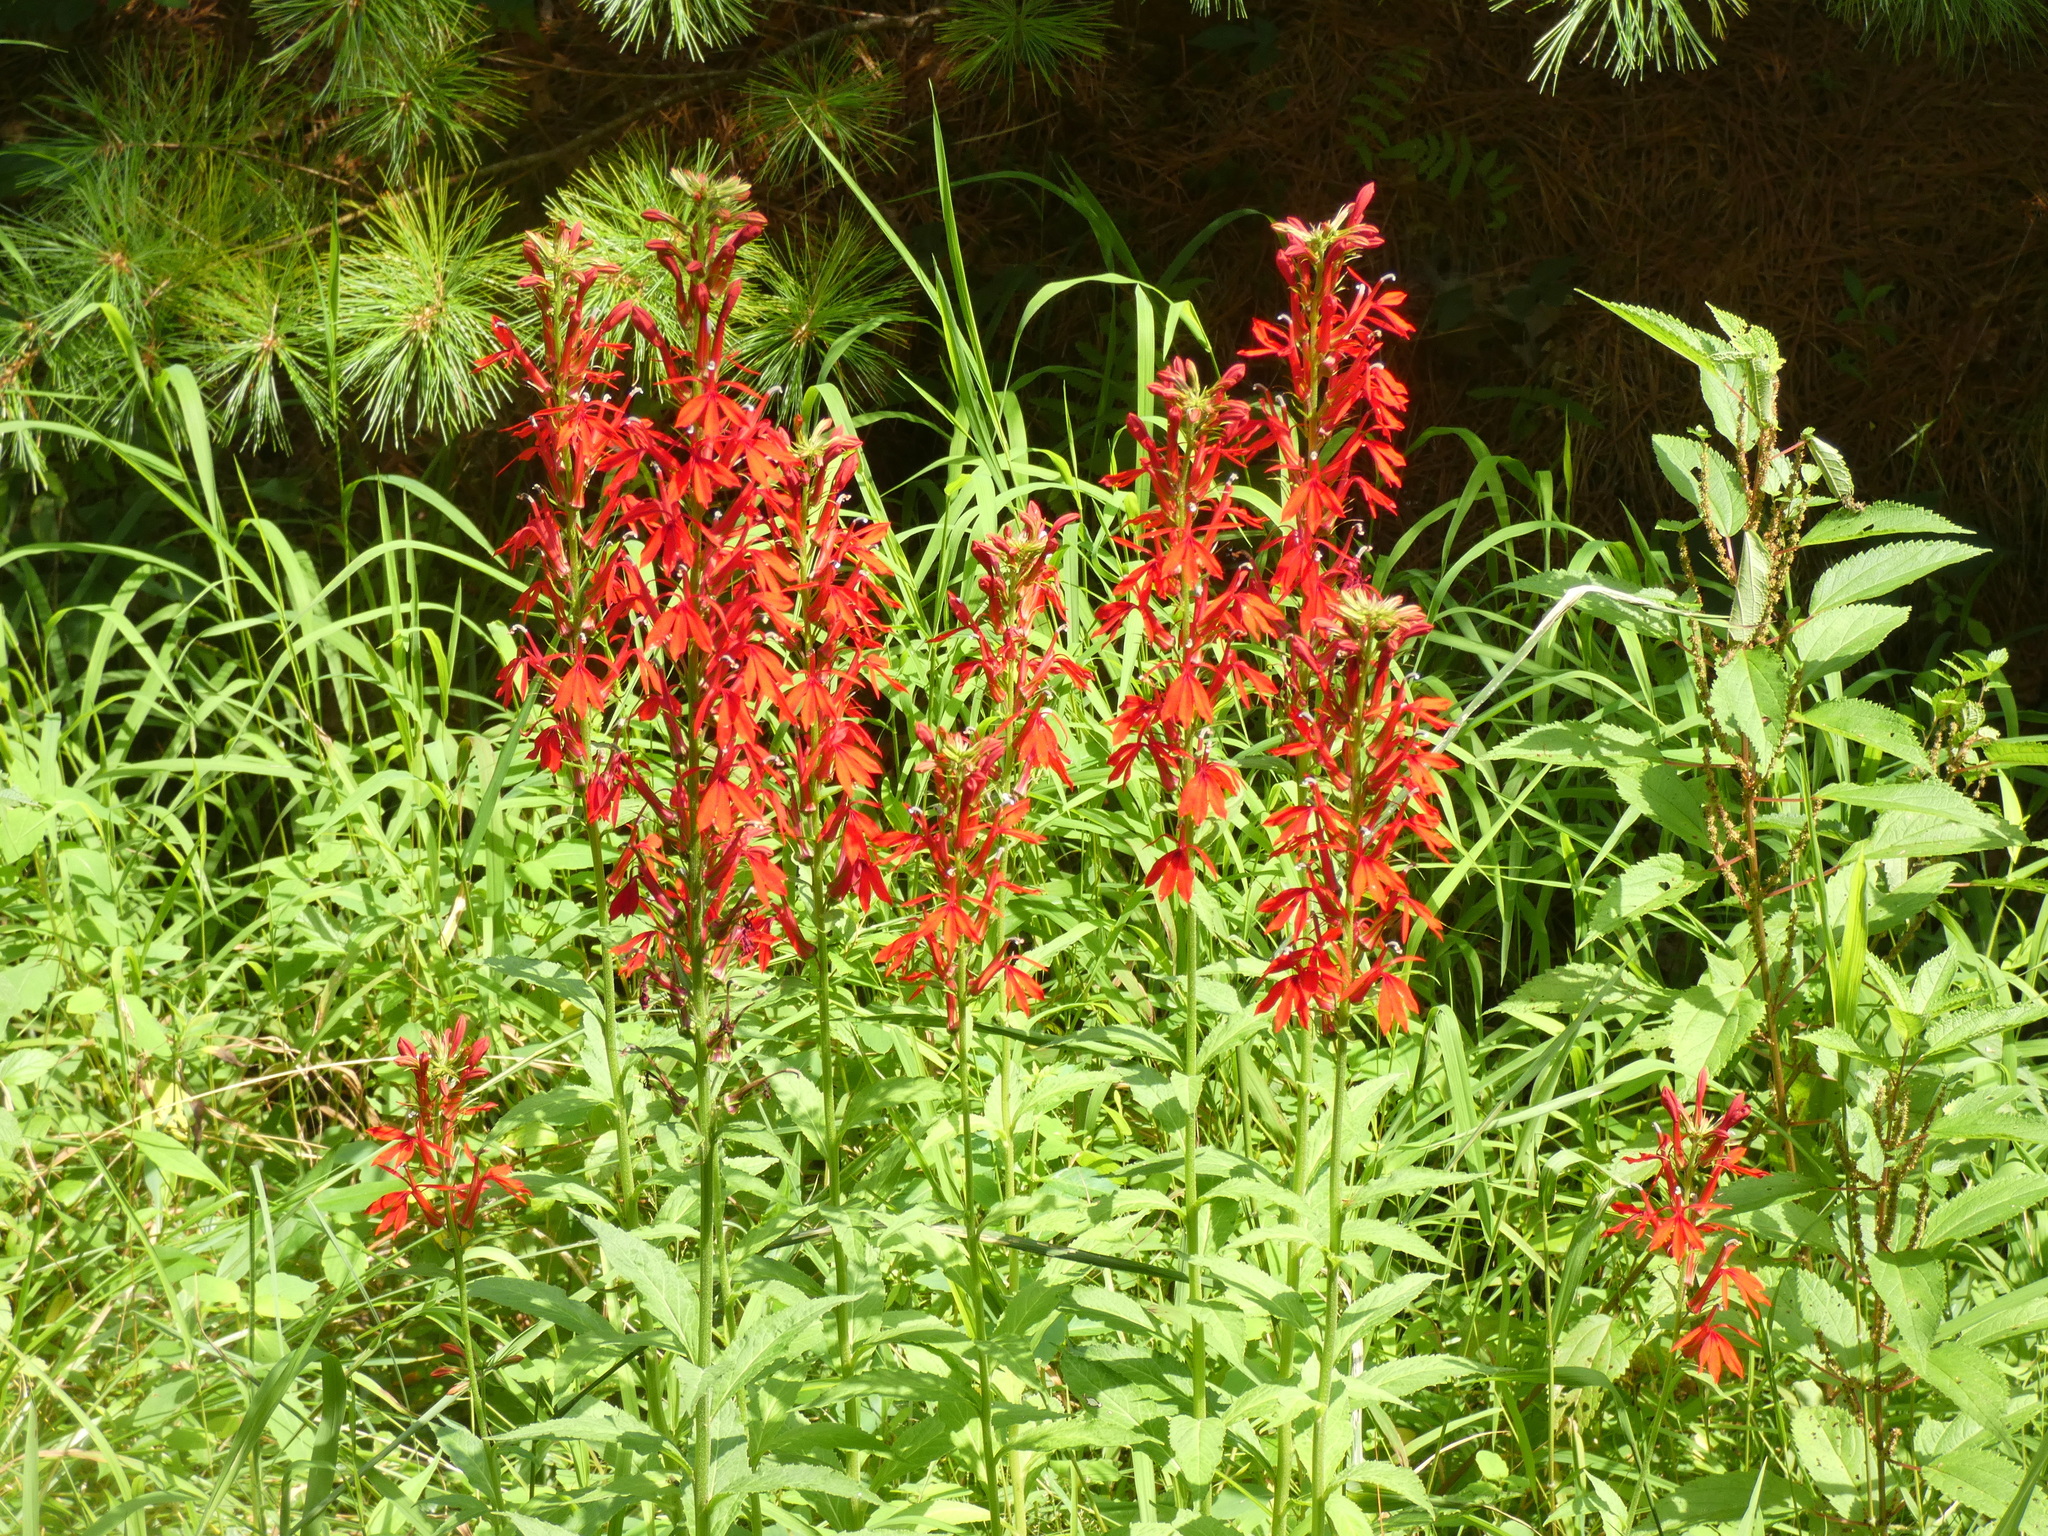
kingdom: Plantae
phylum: Tracheophyta
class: Magnoliopsida
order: Asterales
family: Campanulaceae
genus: Lobelia
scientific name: Lobelia cardinalis
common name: Cardinal flower
